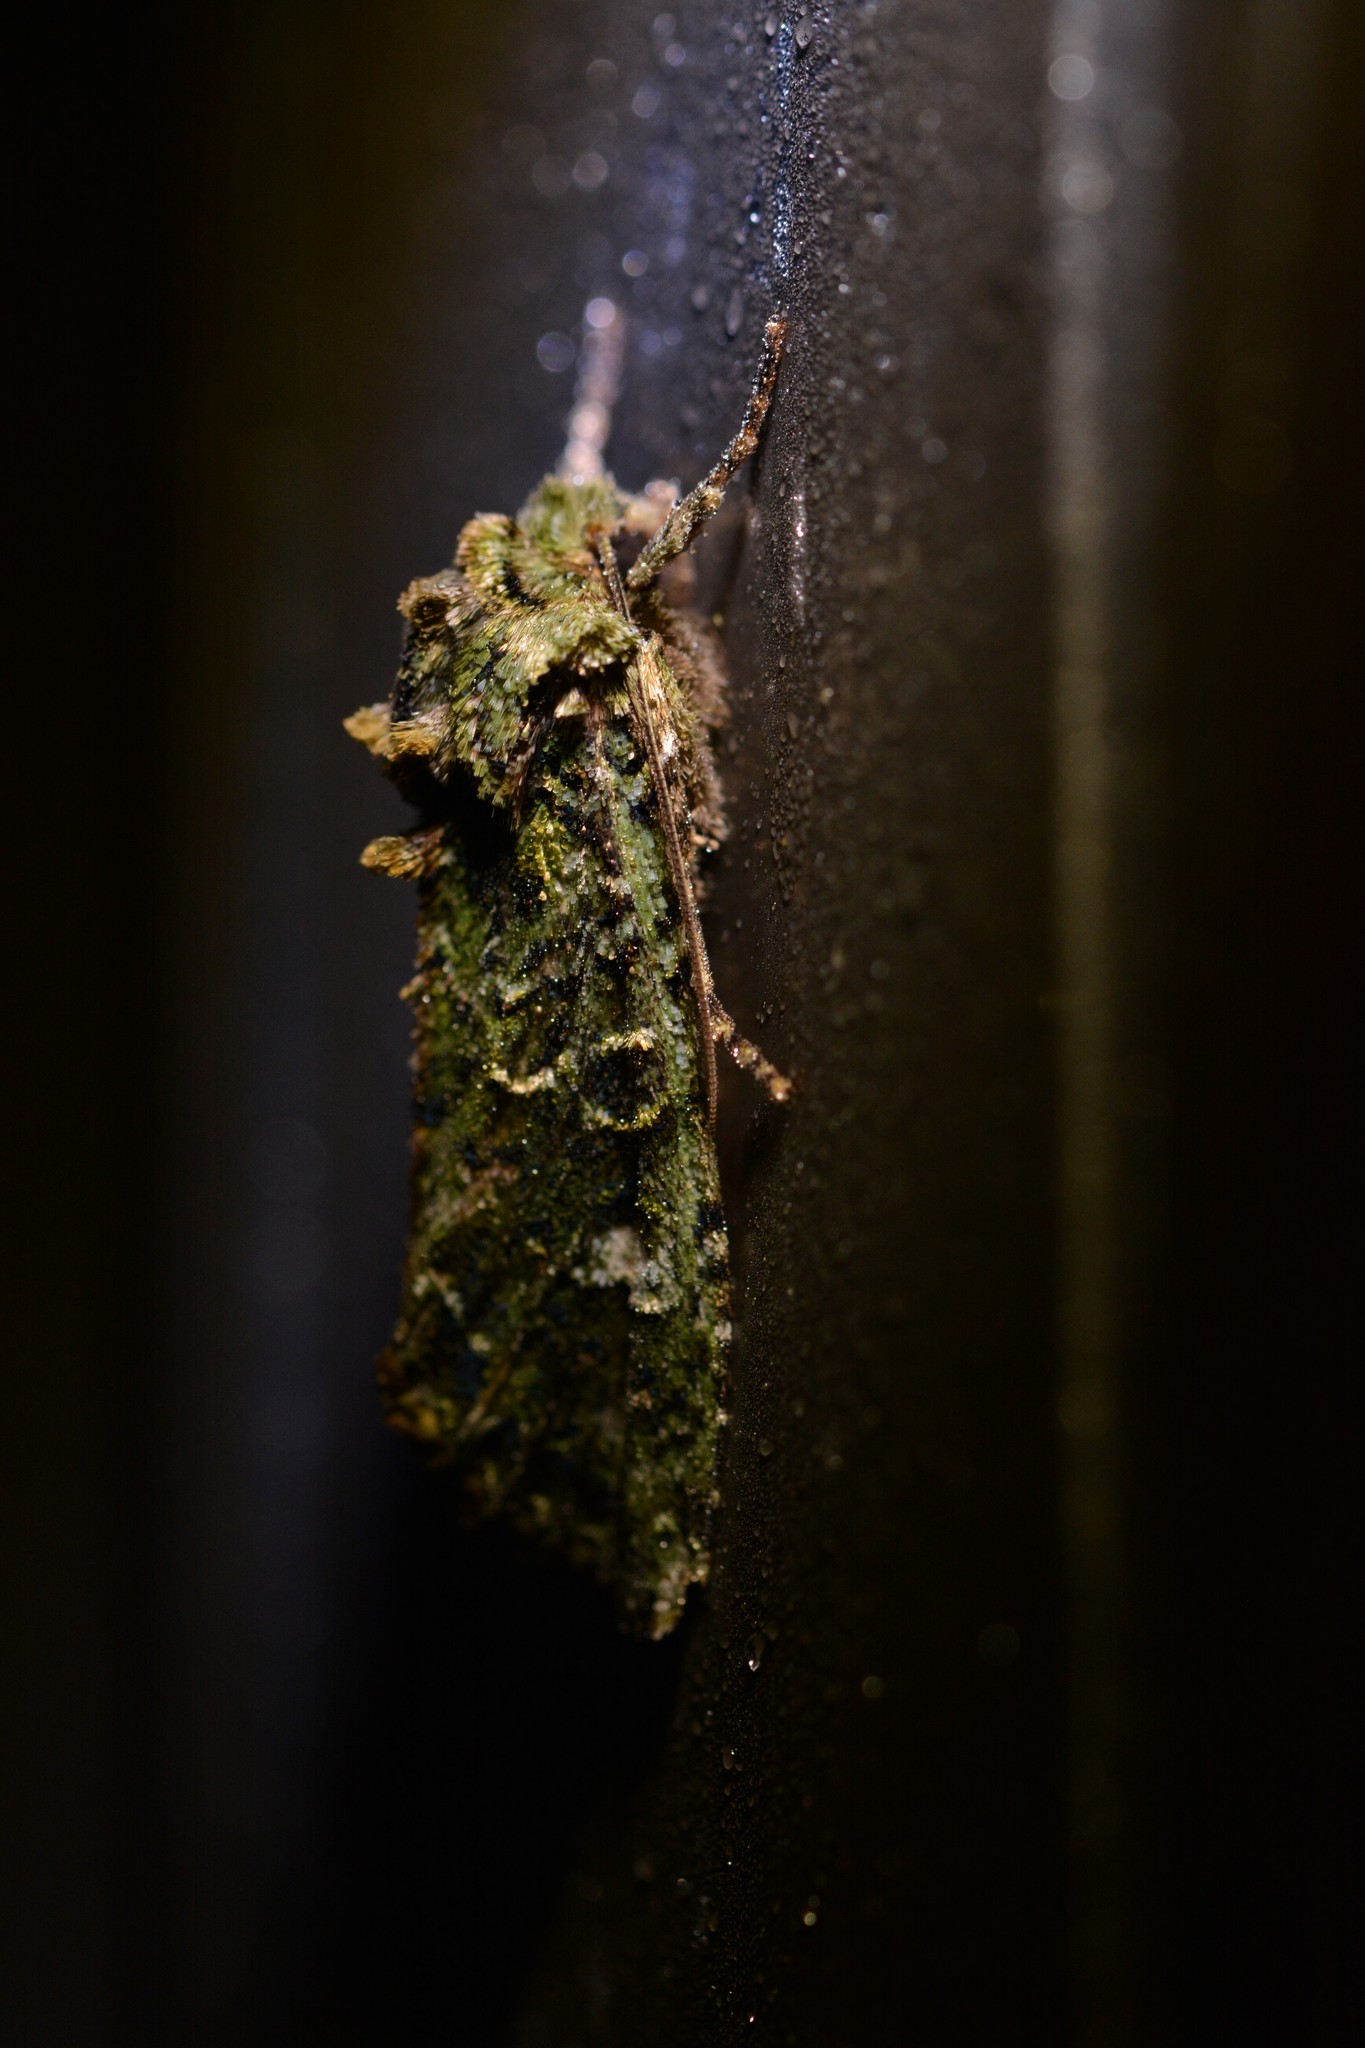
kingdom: Animalia
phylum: Arthropoda
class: Insecta
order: Lepidoptera
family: Noctuidae
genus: Ichneutica
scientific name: Ichneutica
